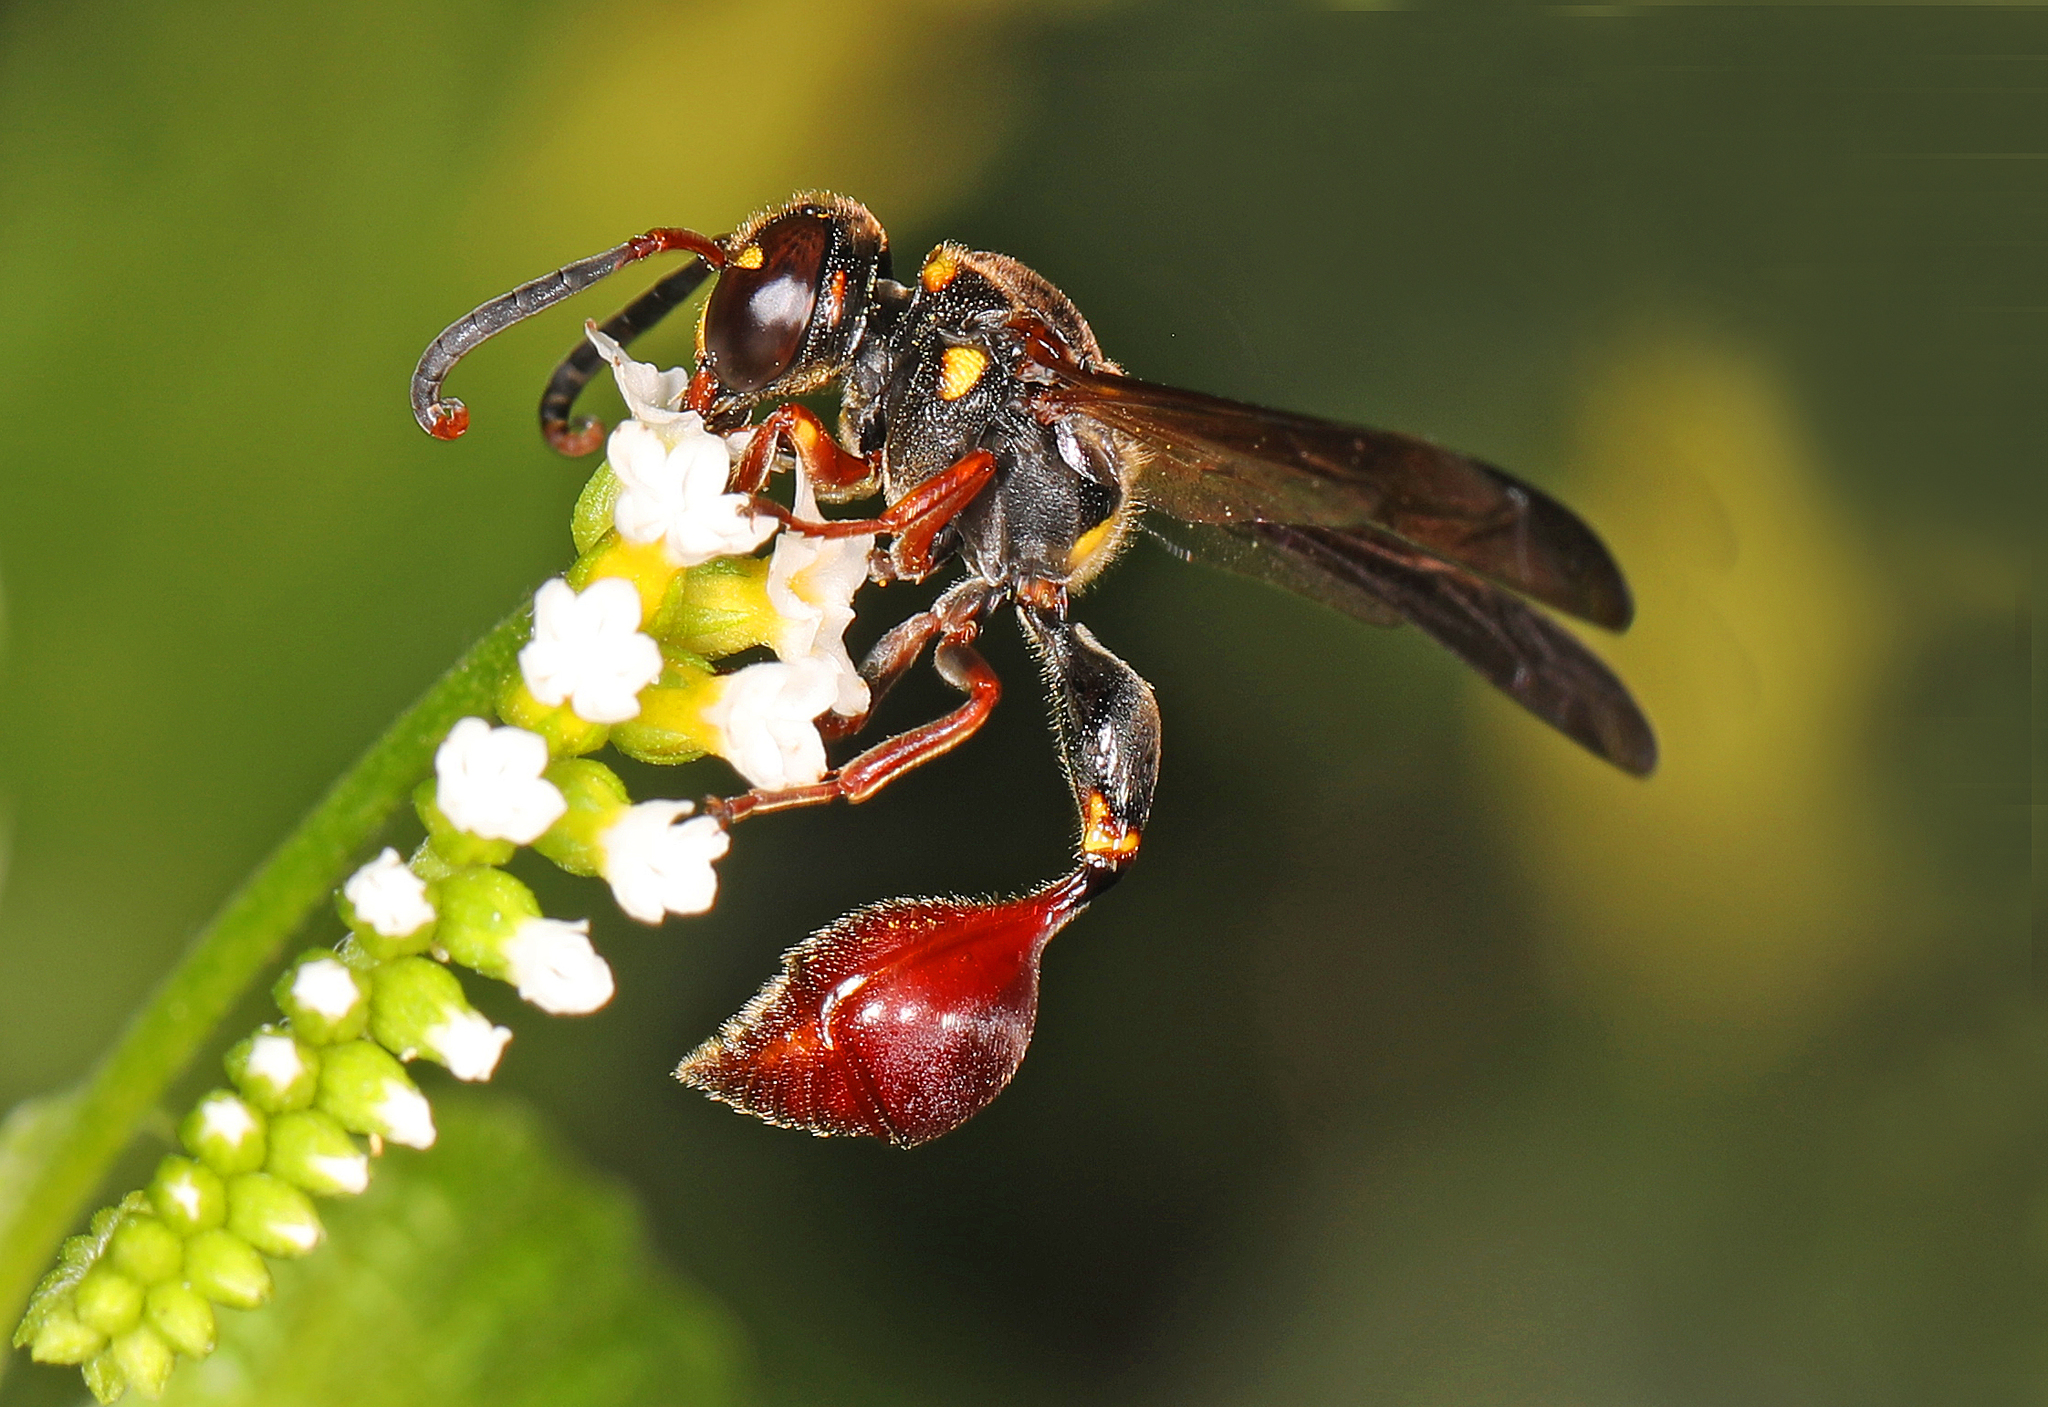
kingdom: Animalia
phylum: Arthropoda
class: Insecta
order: Hymenoptera
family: Eumenidae
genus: Zethus
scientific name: Zethus slossonae
